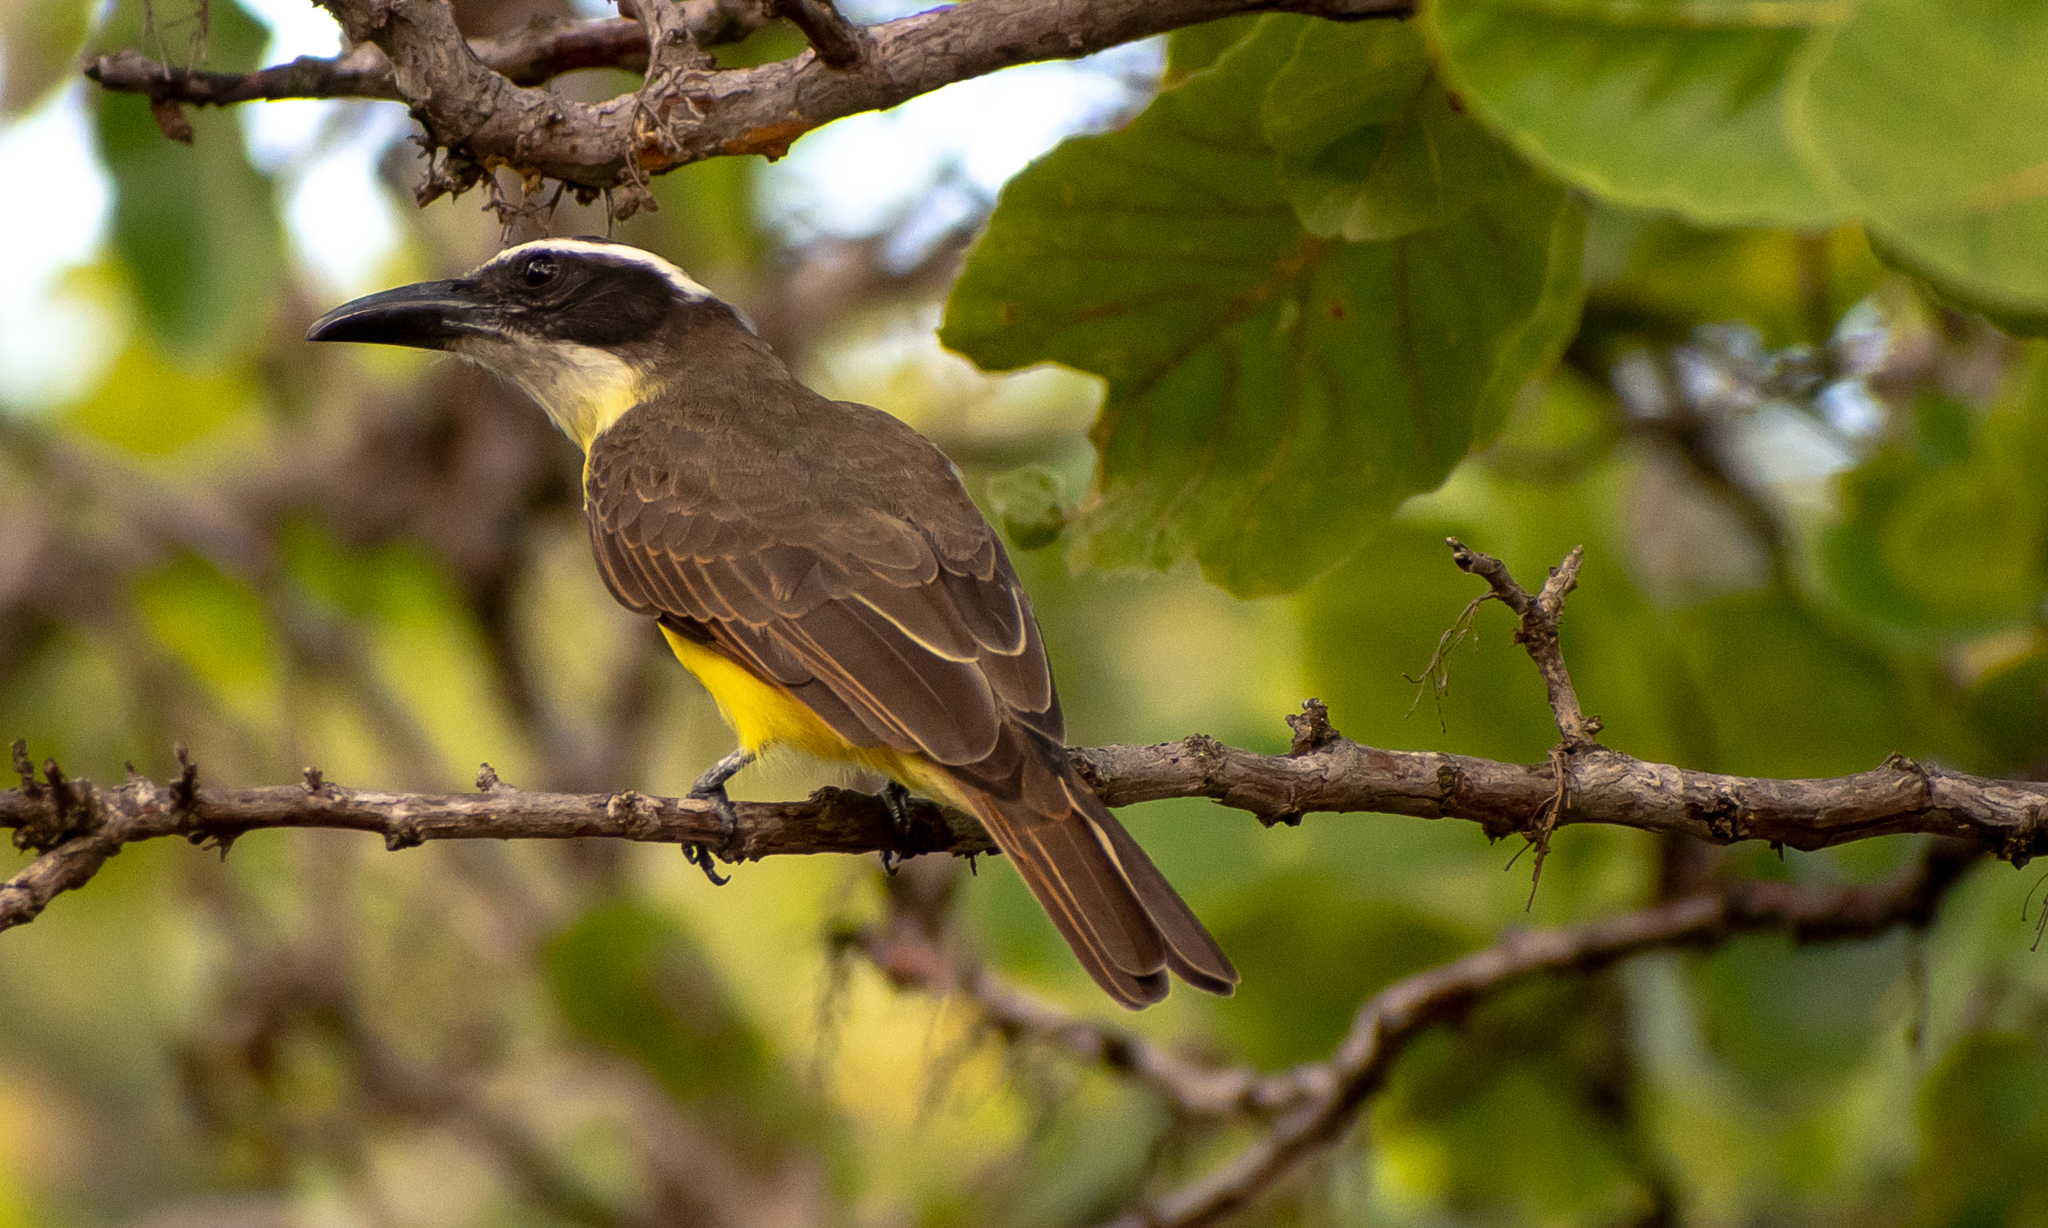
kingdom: Animalia
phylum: Chordata
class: Aves
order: Passeriformes
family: Tyrannidae
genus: Megarynchus
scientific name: Megarynchus pitangua
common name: Boat-billed flycatcher
